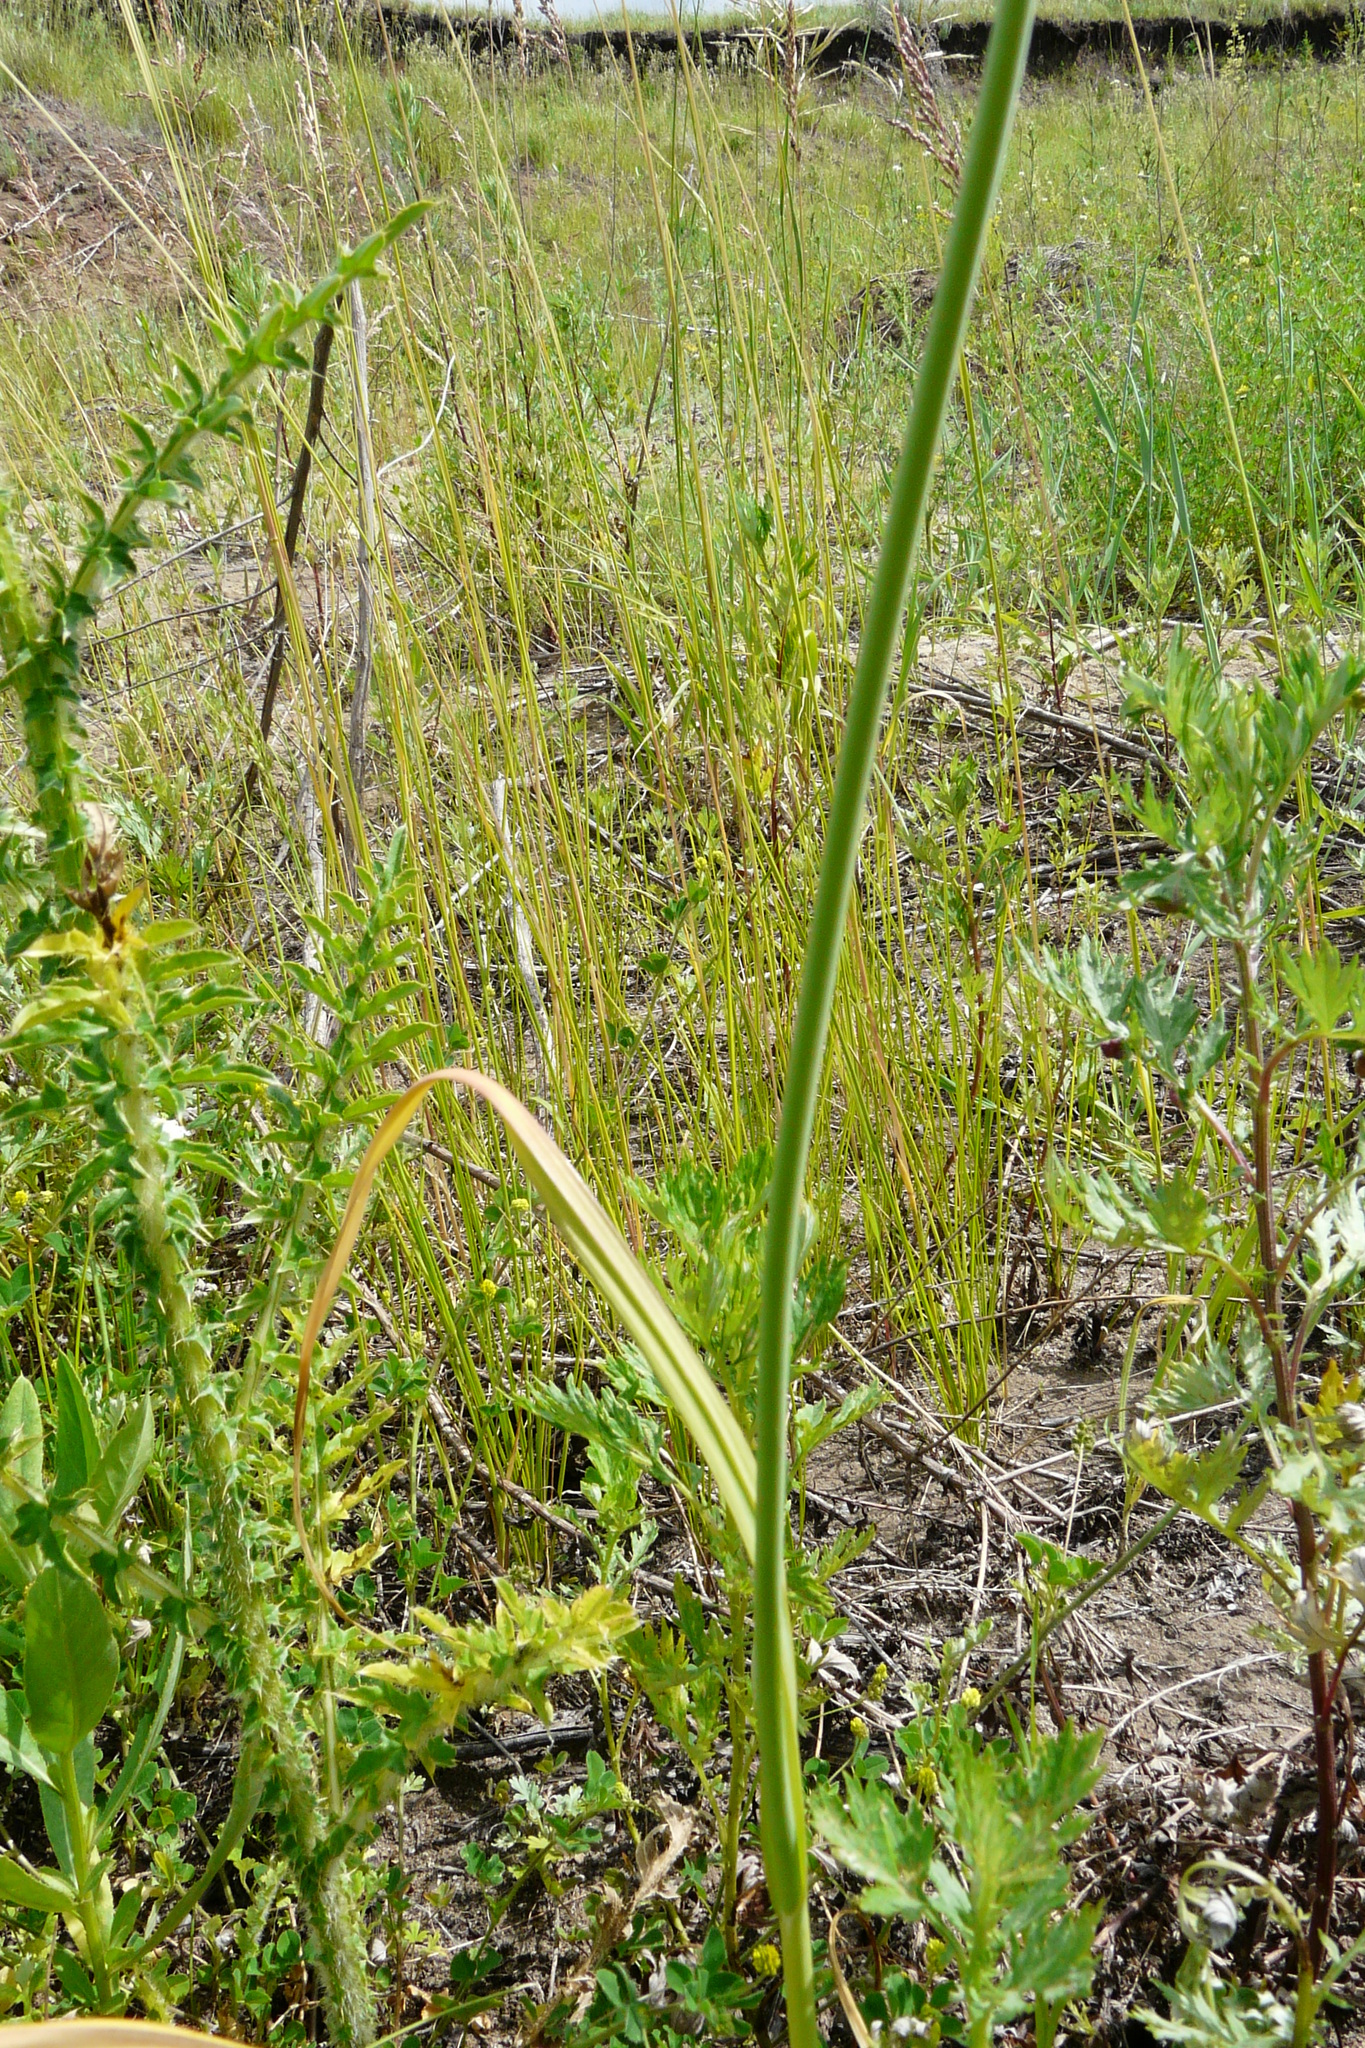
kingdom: Plantae
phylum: Tracheophyta
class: Liliopsida
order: Asparagales
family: Amaryllidaceae
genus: Allium
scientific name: Allium rotundum
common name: Sand leek
